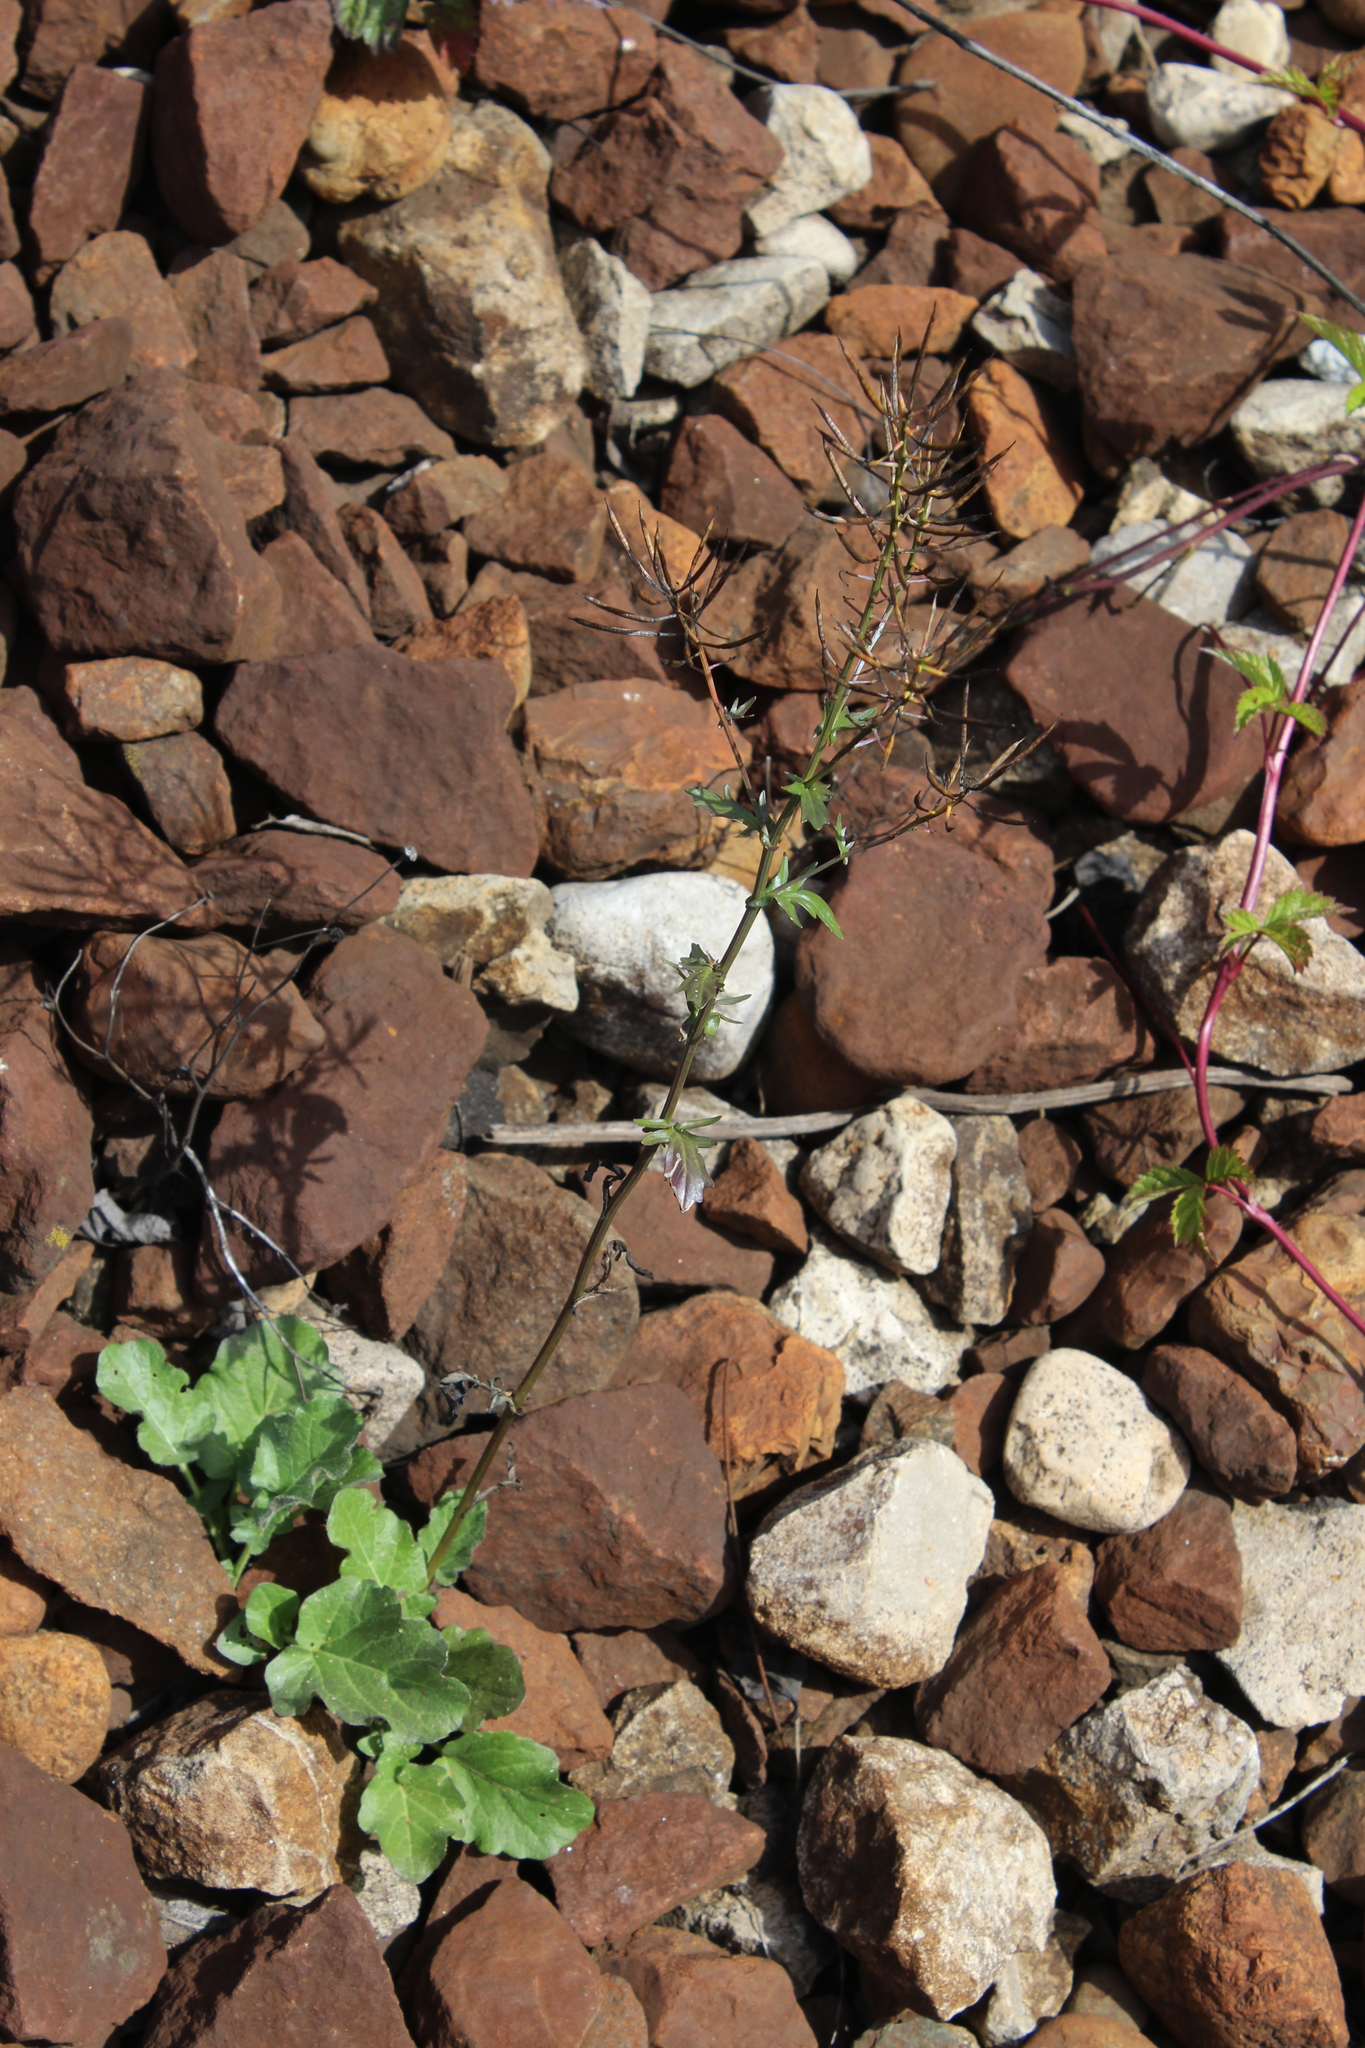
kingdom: Plantae
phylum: Tracheophyta
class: Magnoliopsida
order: Brassicales
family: Brassicaceae
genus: Barbarea
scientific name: Barbarea vulgaris
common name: Cressy-greens
